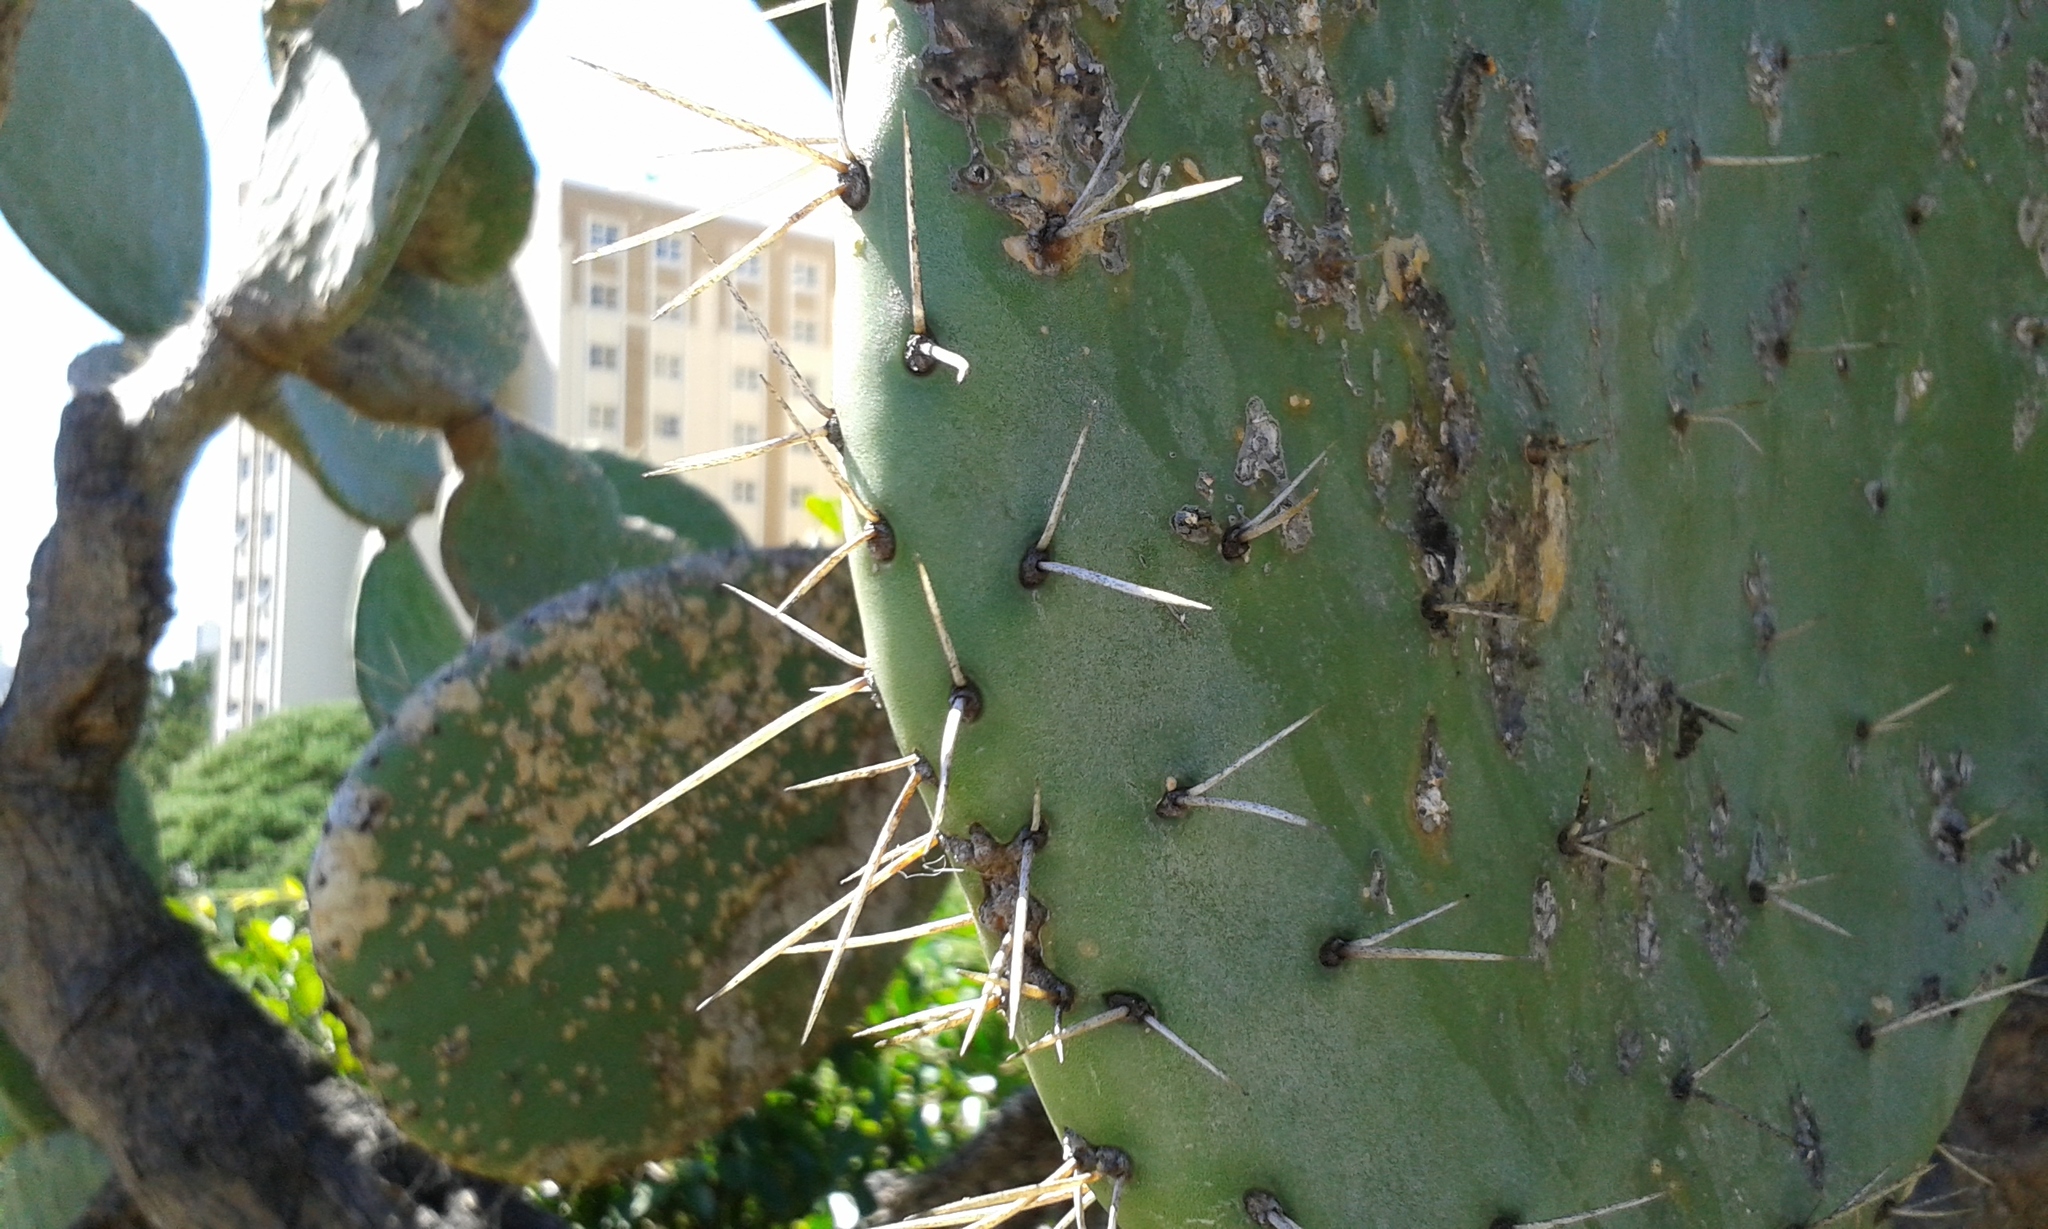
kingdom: Plantae
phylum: Tracheophyta
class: Magnoliopsida
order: Caryophyllales
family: Cactaceae
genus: Opuntia
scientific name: Opuntia ficus-indica
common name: Barbary fig
